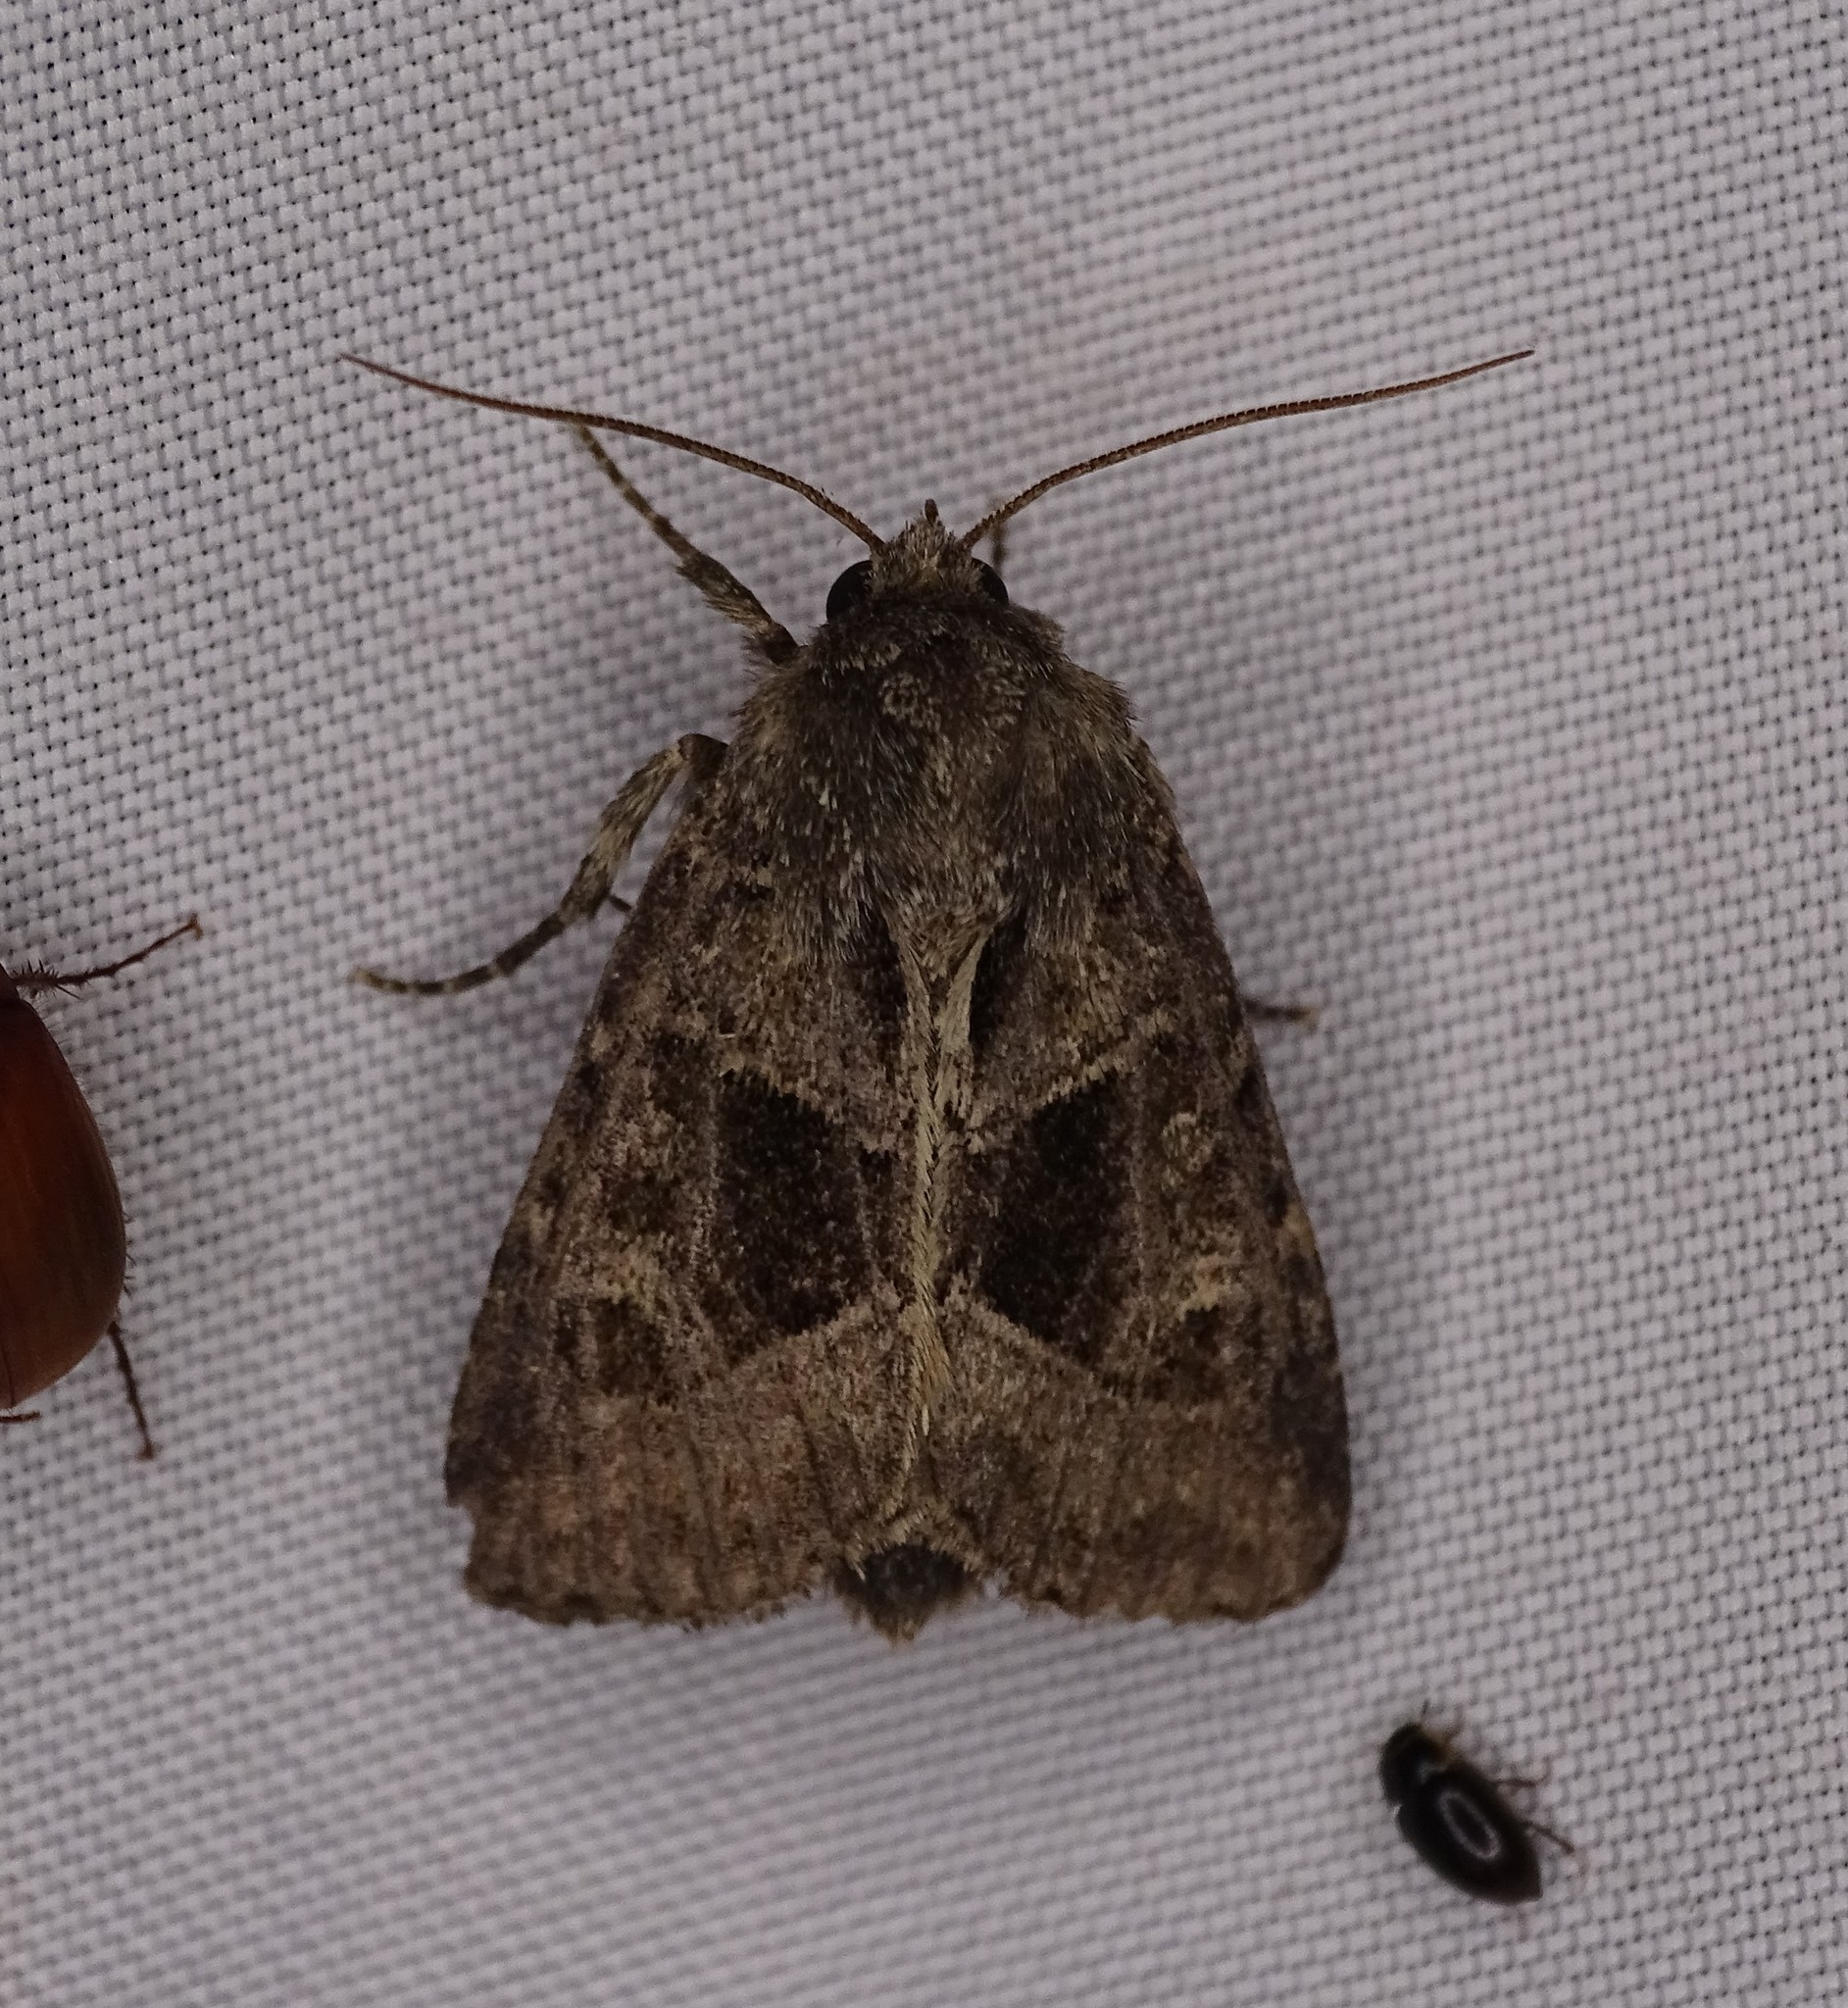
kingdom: Animalia
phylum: Arthropoda
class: Insecta
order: Lepidoptera
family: Noctuidae
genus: Oligia
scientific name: Oligia obtusa
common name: Obtuse sedge borer
